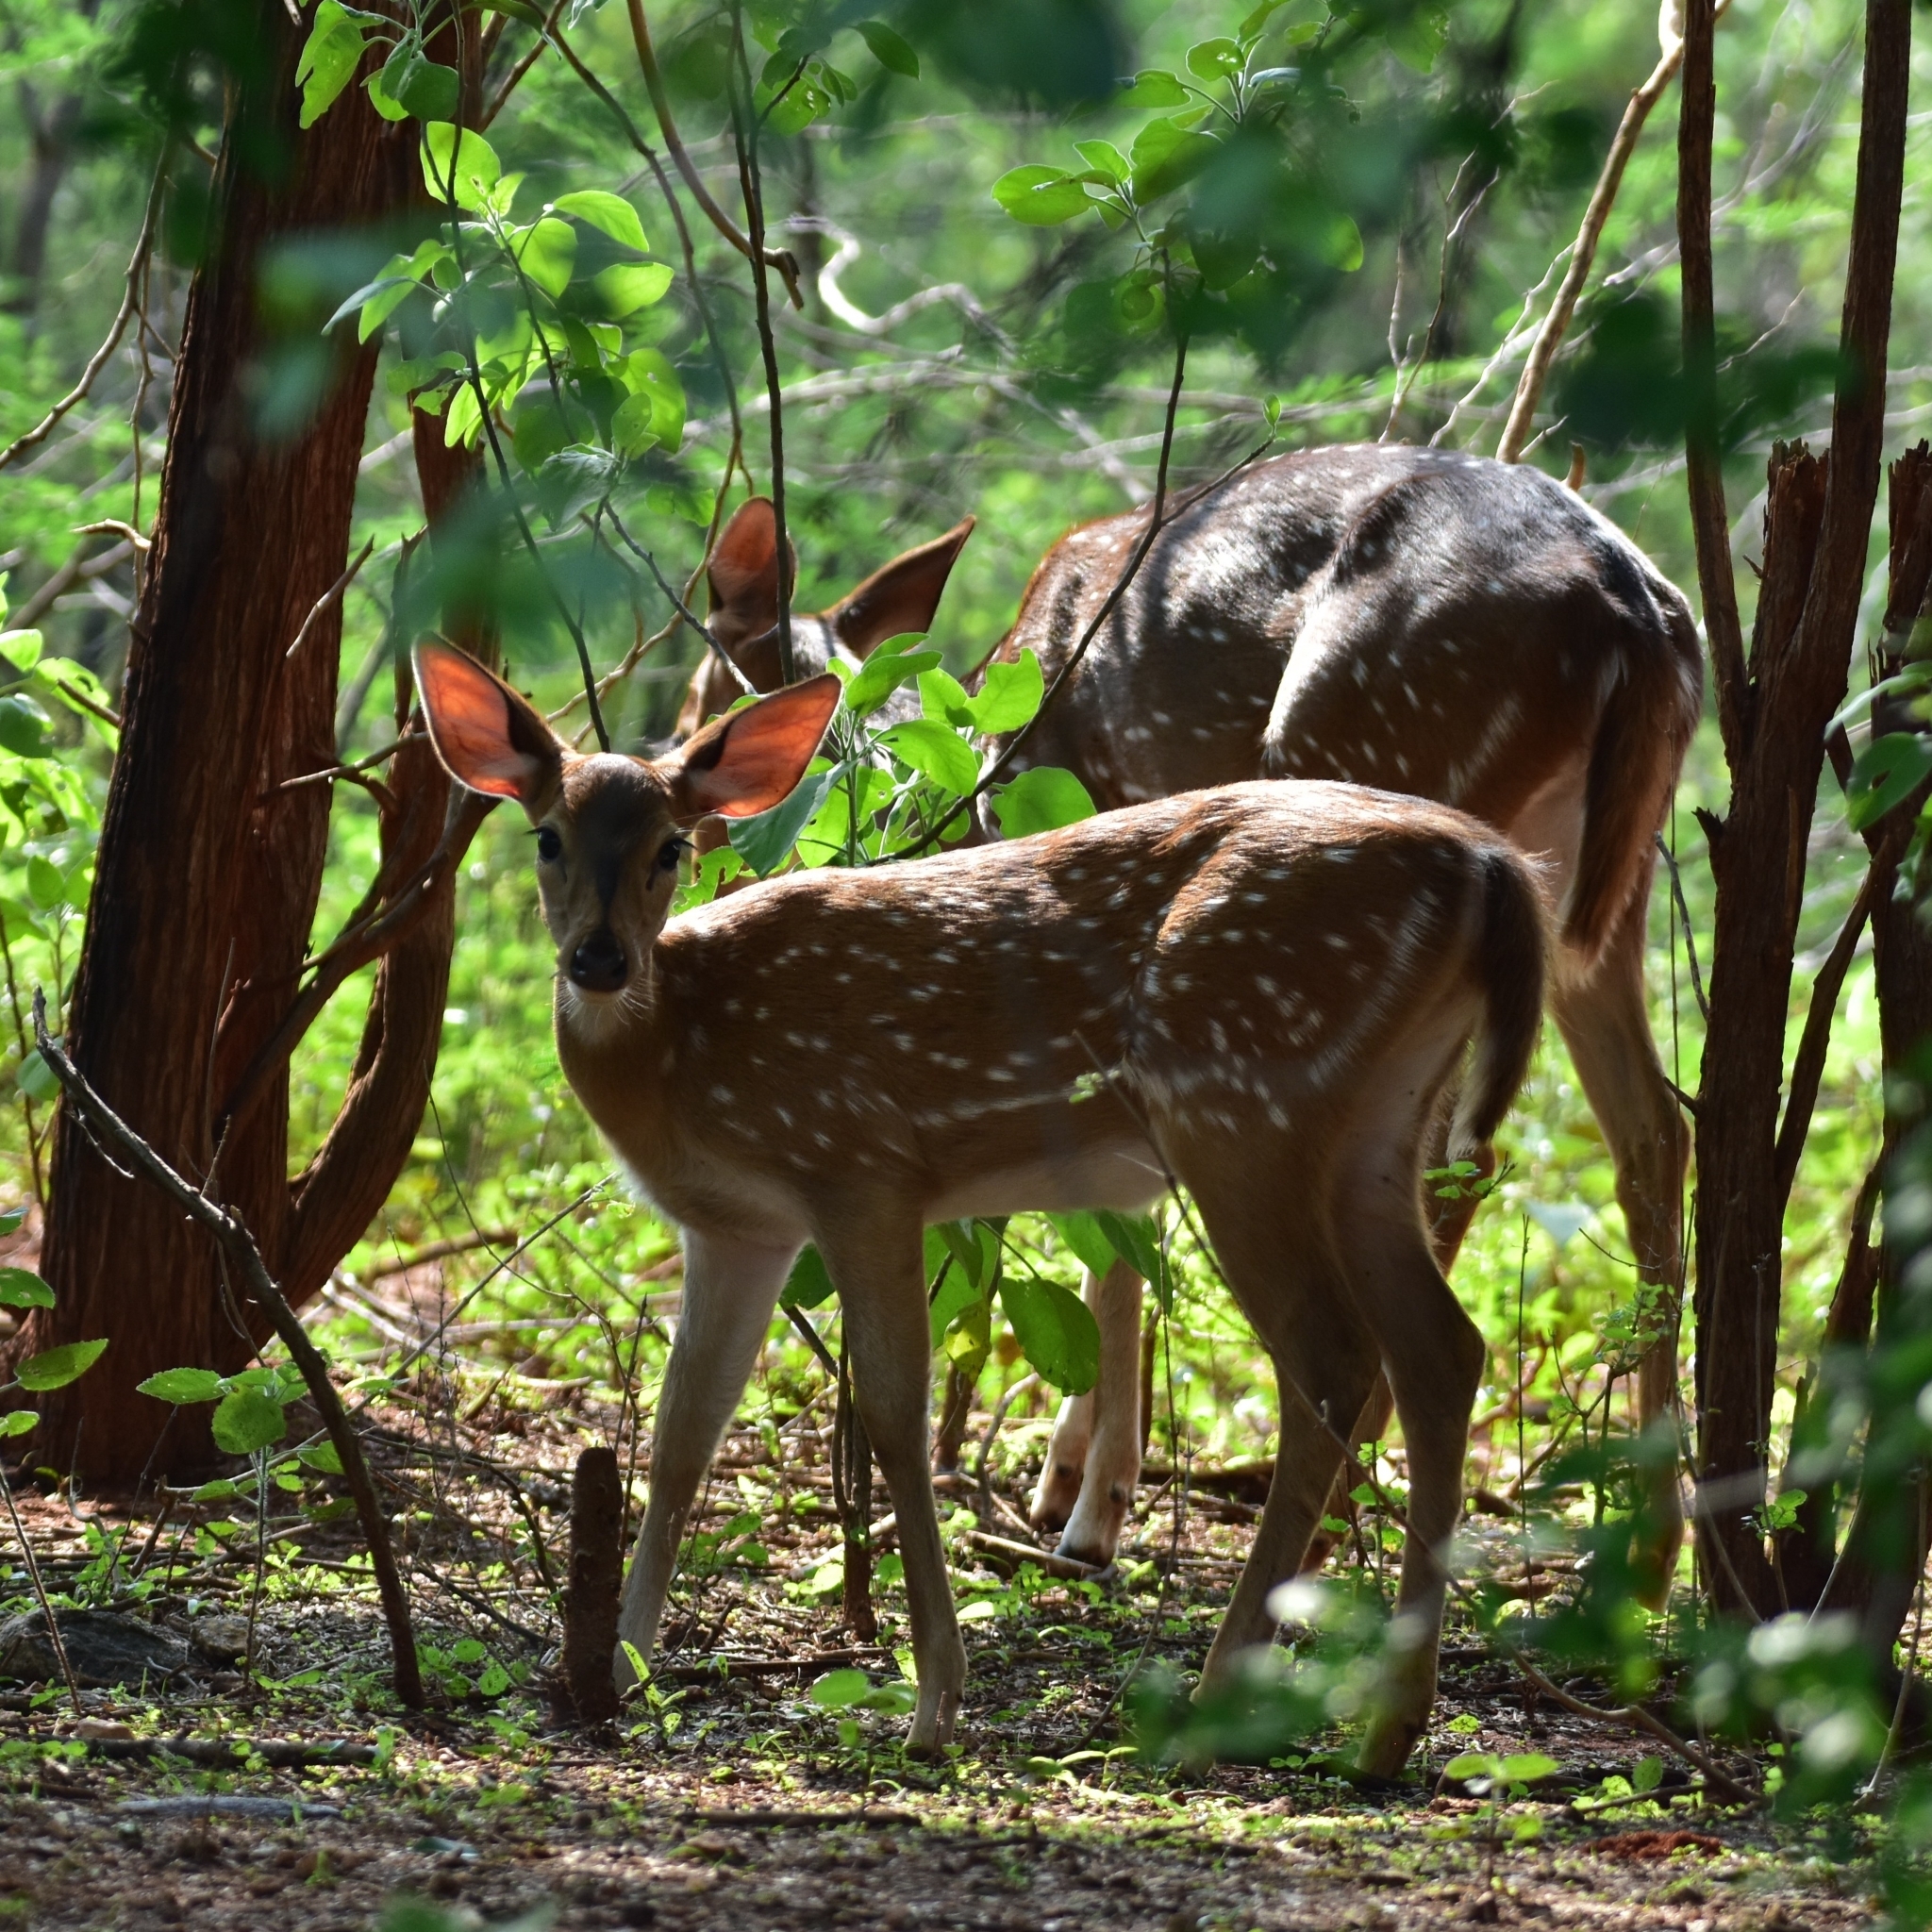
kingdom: Animalia
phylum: Chordata
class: Mammalia
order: Artiodactyla
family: Cervidae
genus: Axis
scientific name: Axis axis
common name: Chital
